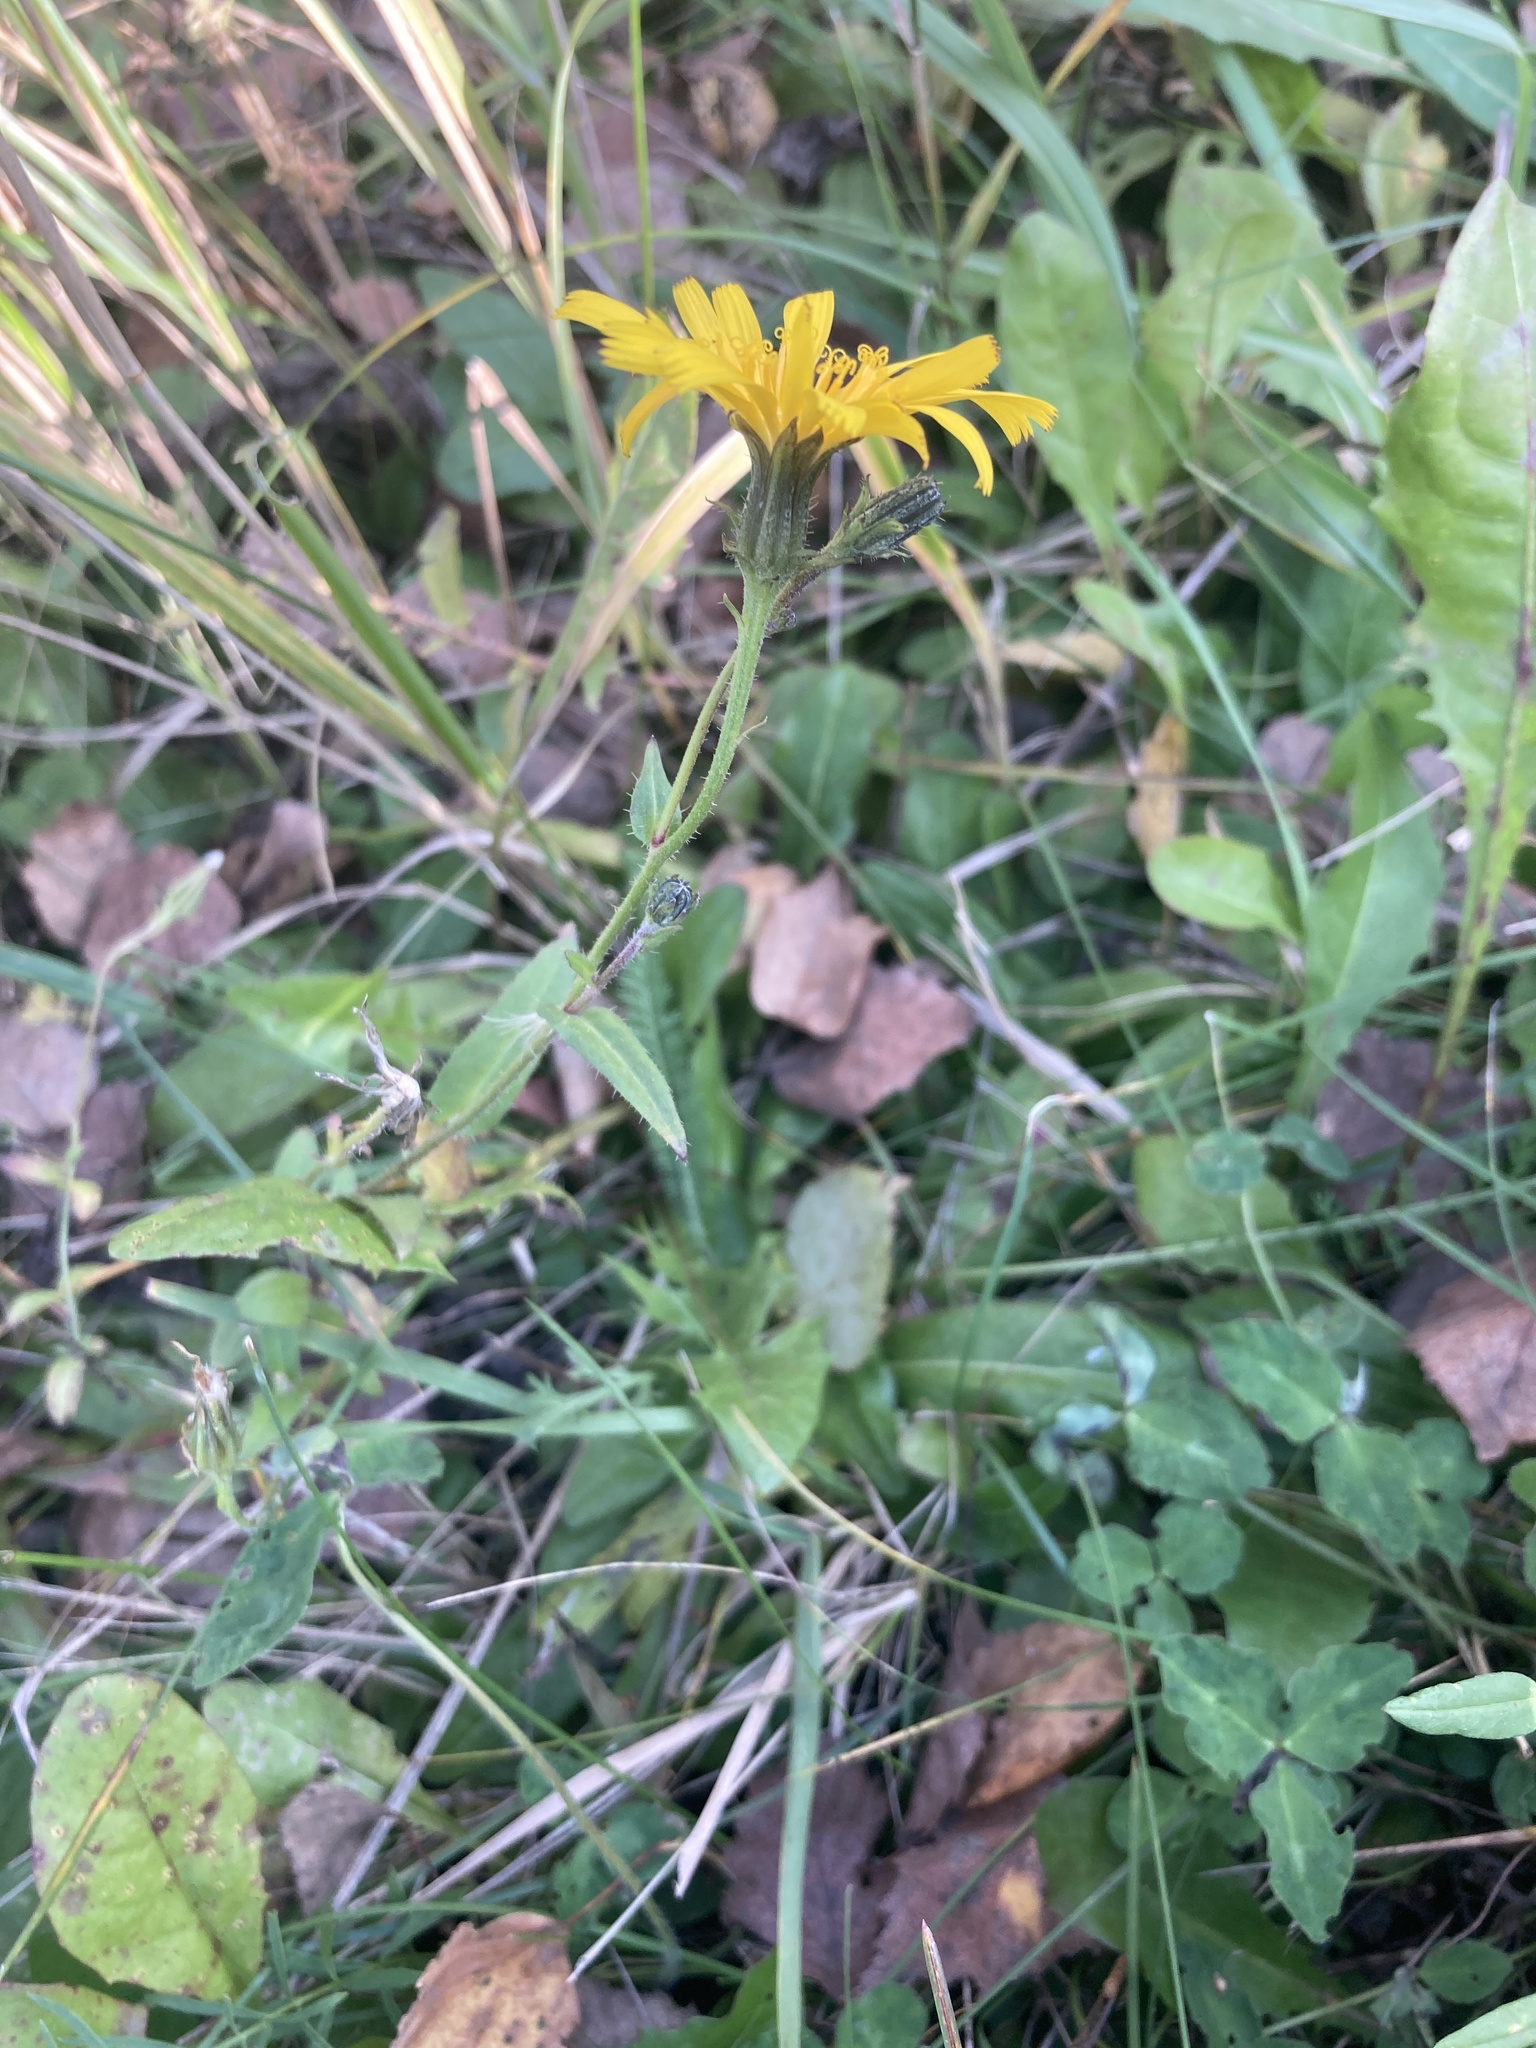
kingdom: Plantae
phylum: Tracheophyta
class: Magnoliopsida
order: Asterales
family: Asteraceae
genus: Picris
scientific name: Picris hieracioides
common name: Hawkweed oxtongue
